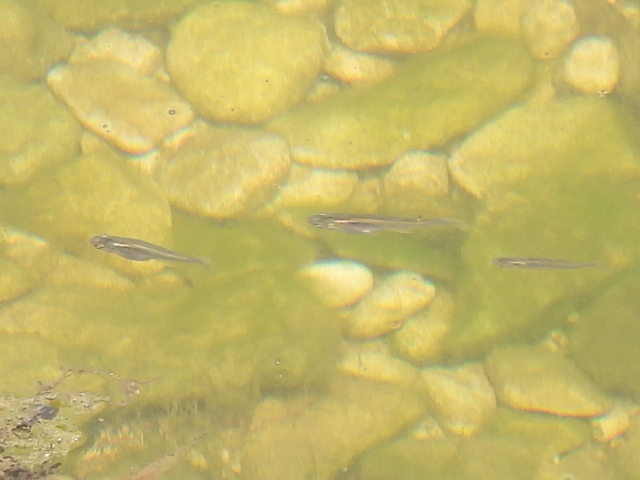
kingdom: Animalia
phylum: Chordata
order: Cyprinodontiformes
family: Poeciliidae
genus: Gambusia
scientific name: Gambusia affinis
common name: Mosquitofish
